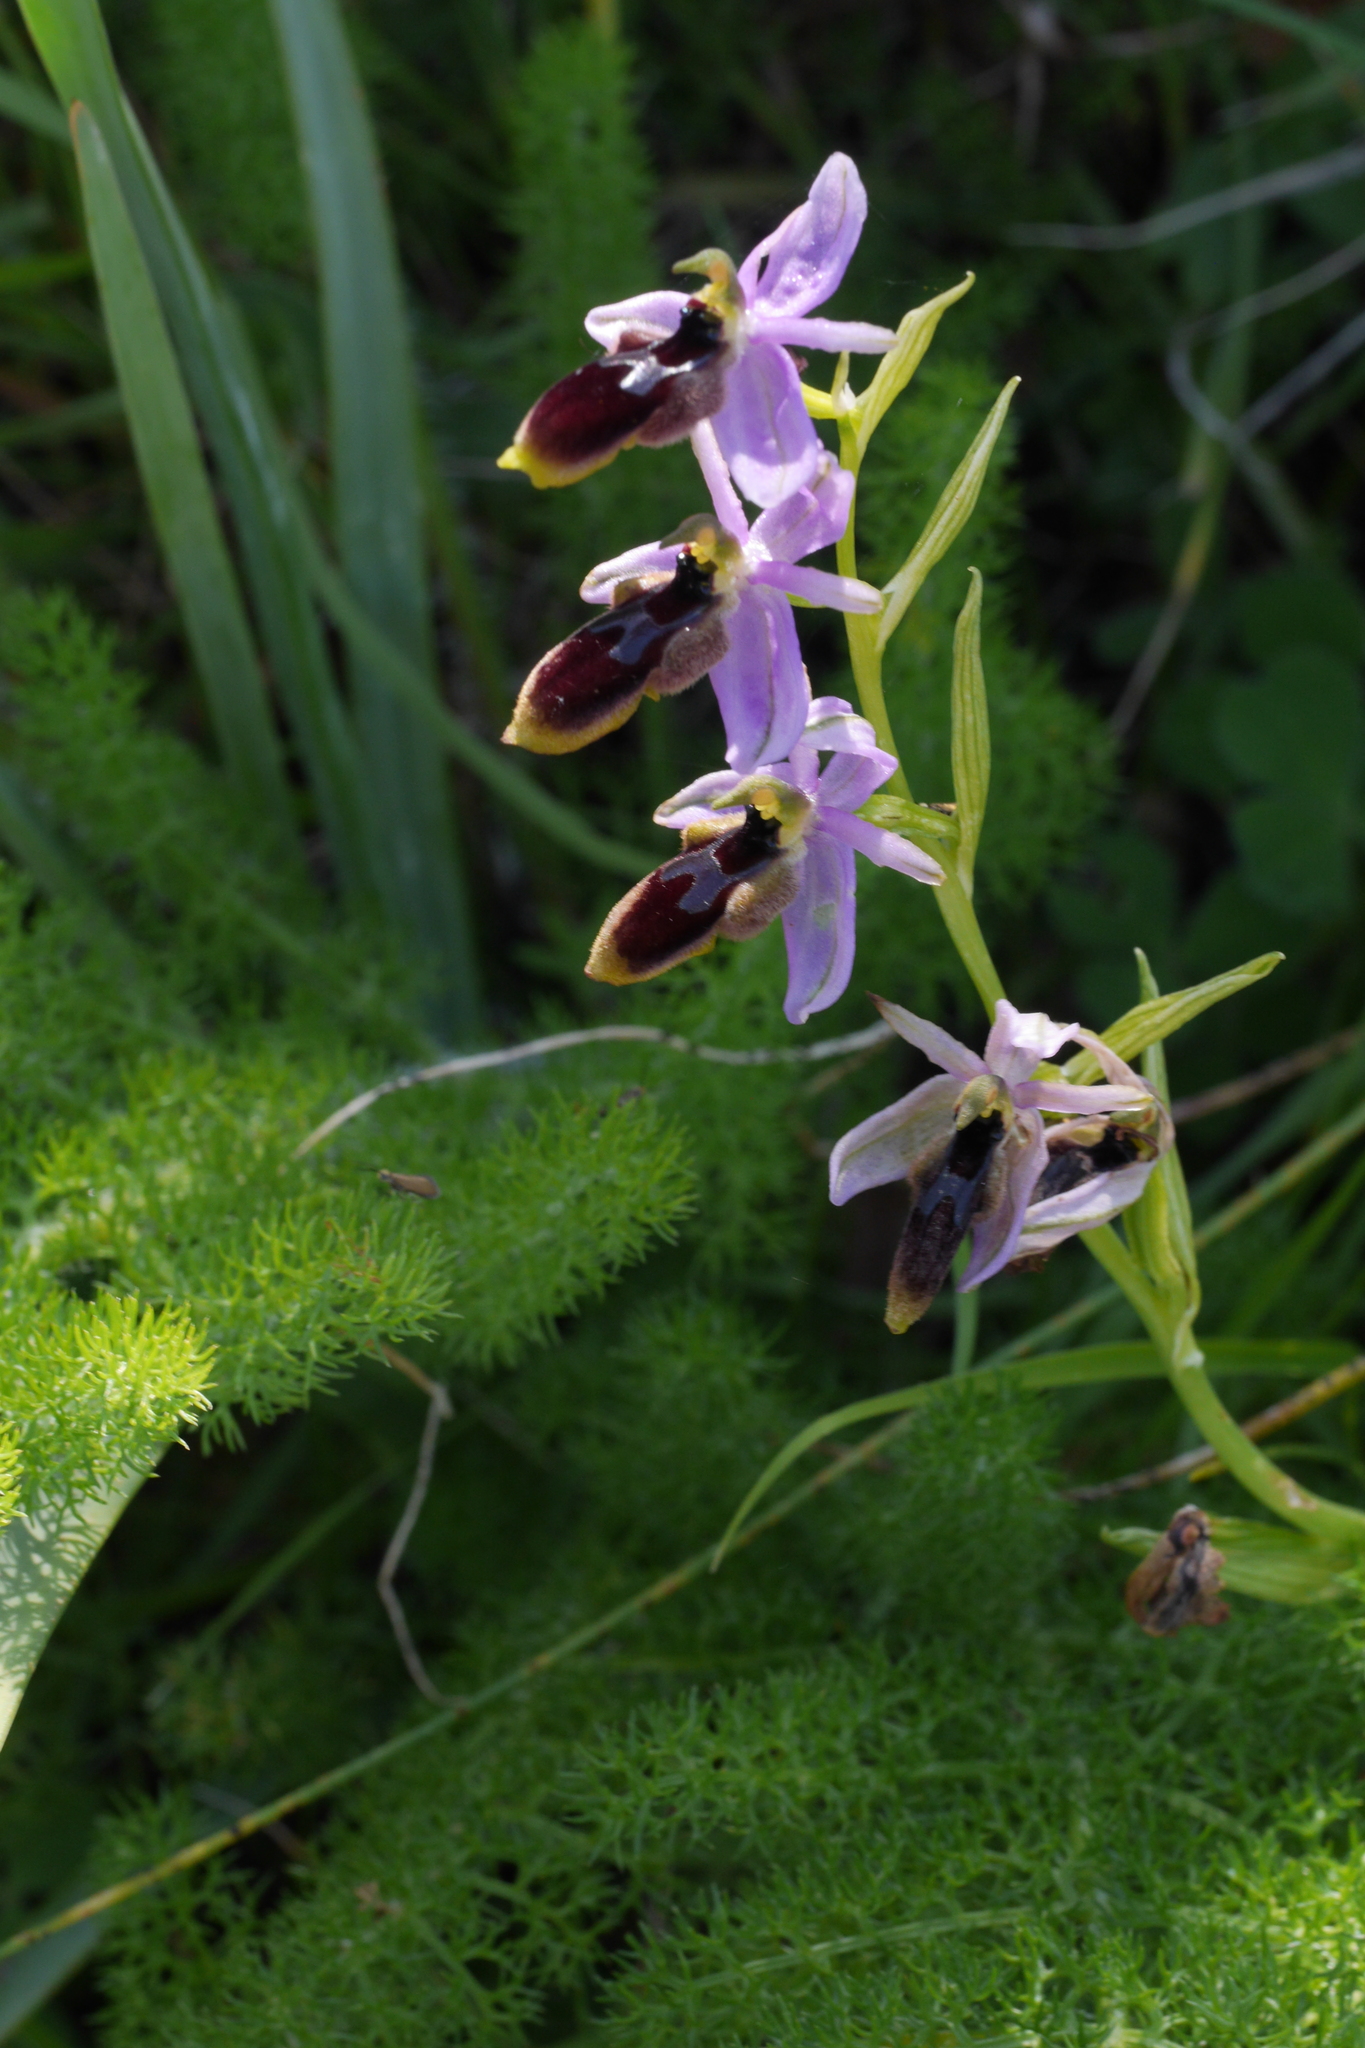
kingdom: Plantae
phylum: Tracheophyta
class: Liliopsida
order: Asparagales
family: Orchidaceae
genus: Ophrys
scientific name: Ophrys lunulata
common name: Lunulate ophrys
